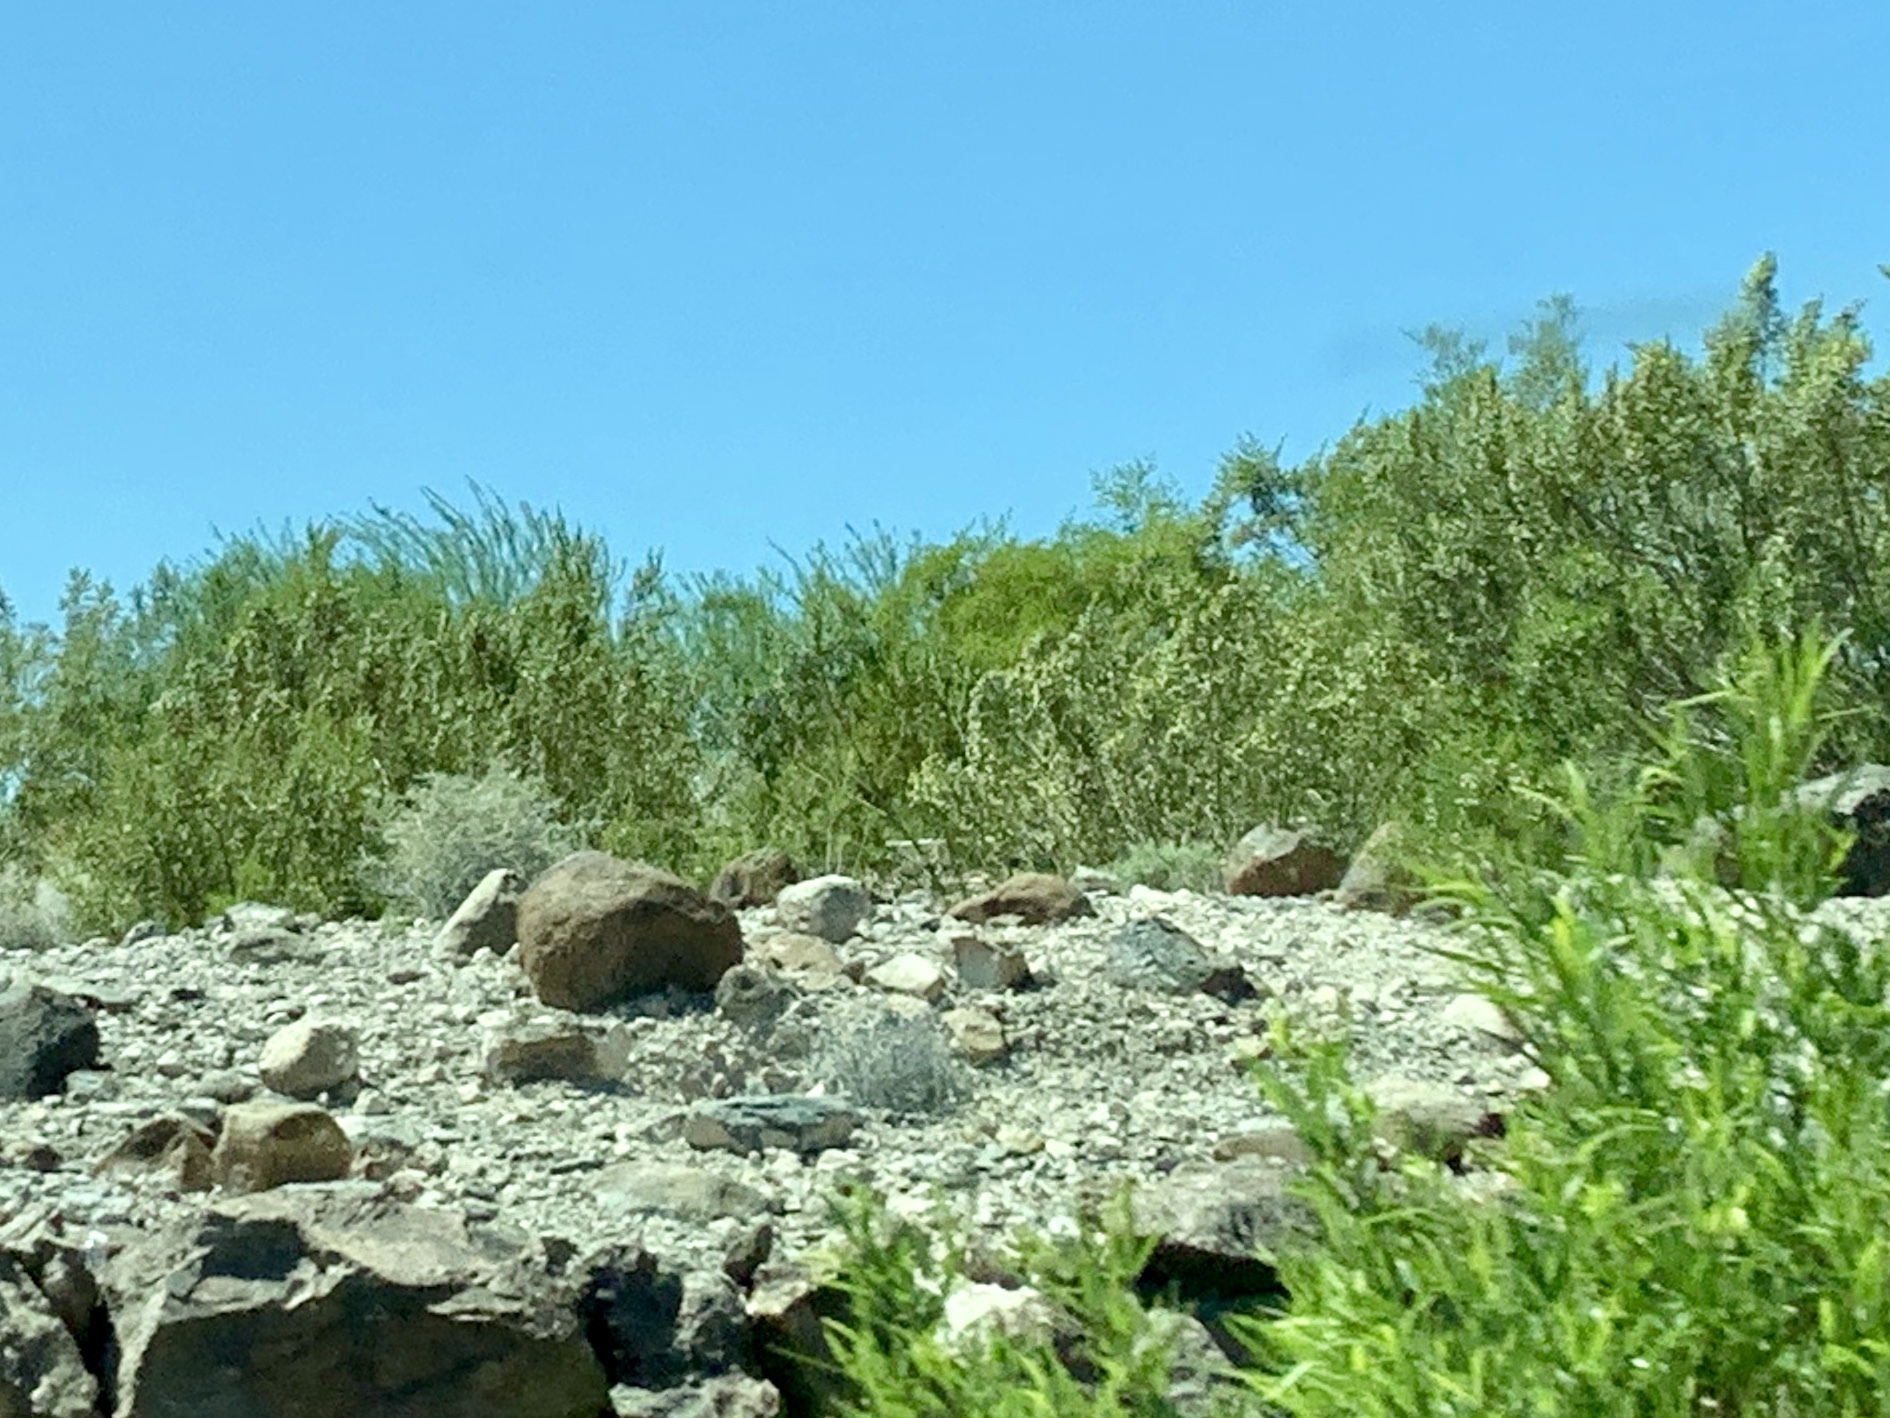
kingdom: Plantae
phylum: Tracheophyta
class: Magnoliopsida
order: Zygophyllales
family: Zygophyllaceae
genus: Larrea
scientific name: Larrea tridentata
